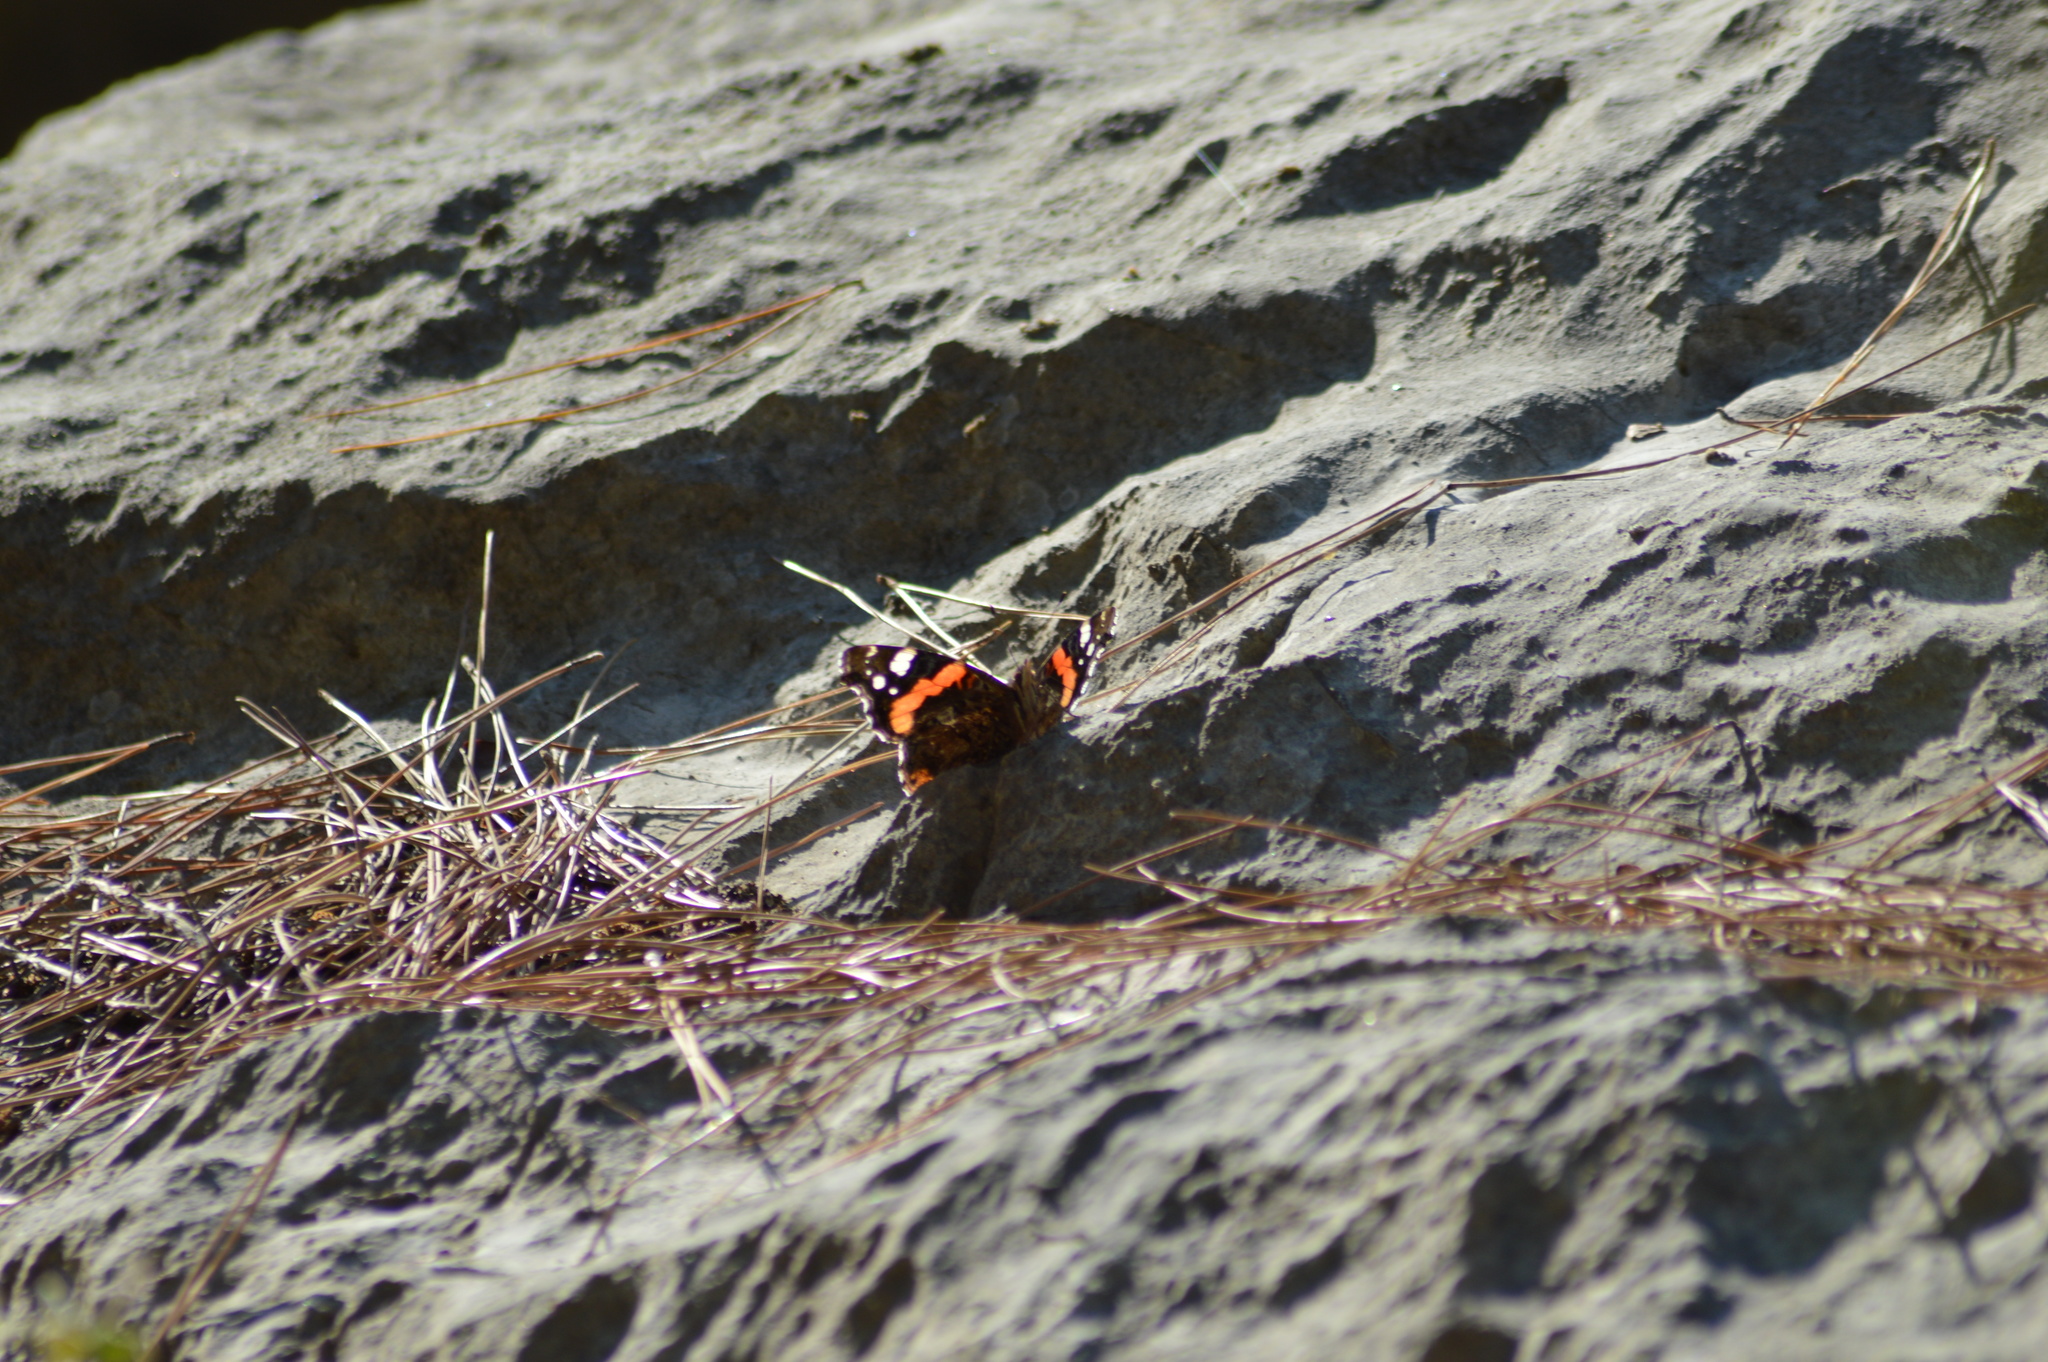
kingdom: Animalia
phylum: Arthropoda
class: Insecta
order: Lepidoptera
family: Nymphalidae
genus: Vanessa
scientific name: Vanessa atalanta
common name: Red admiral
